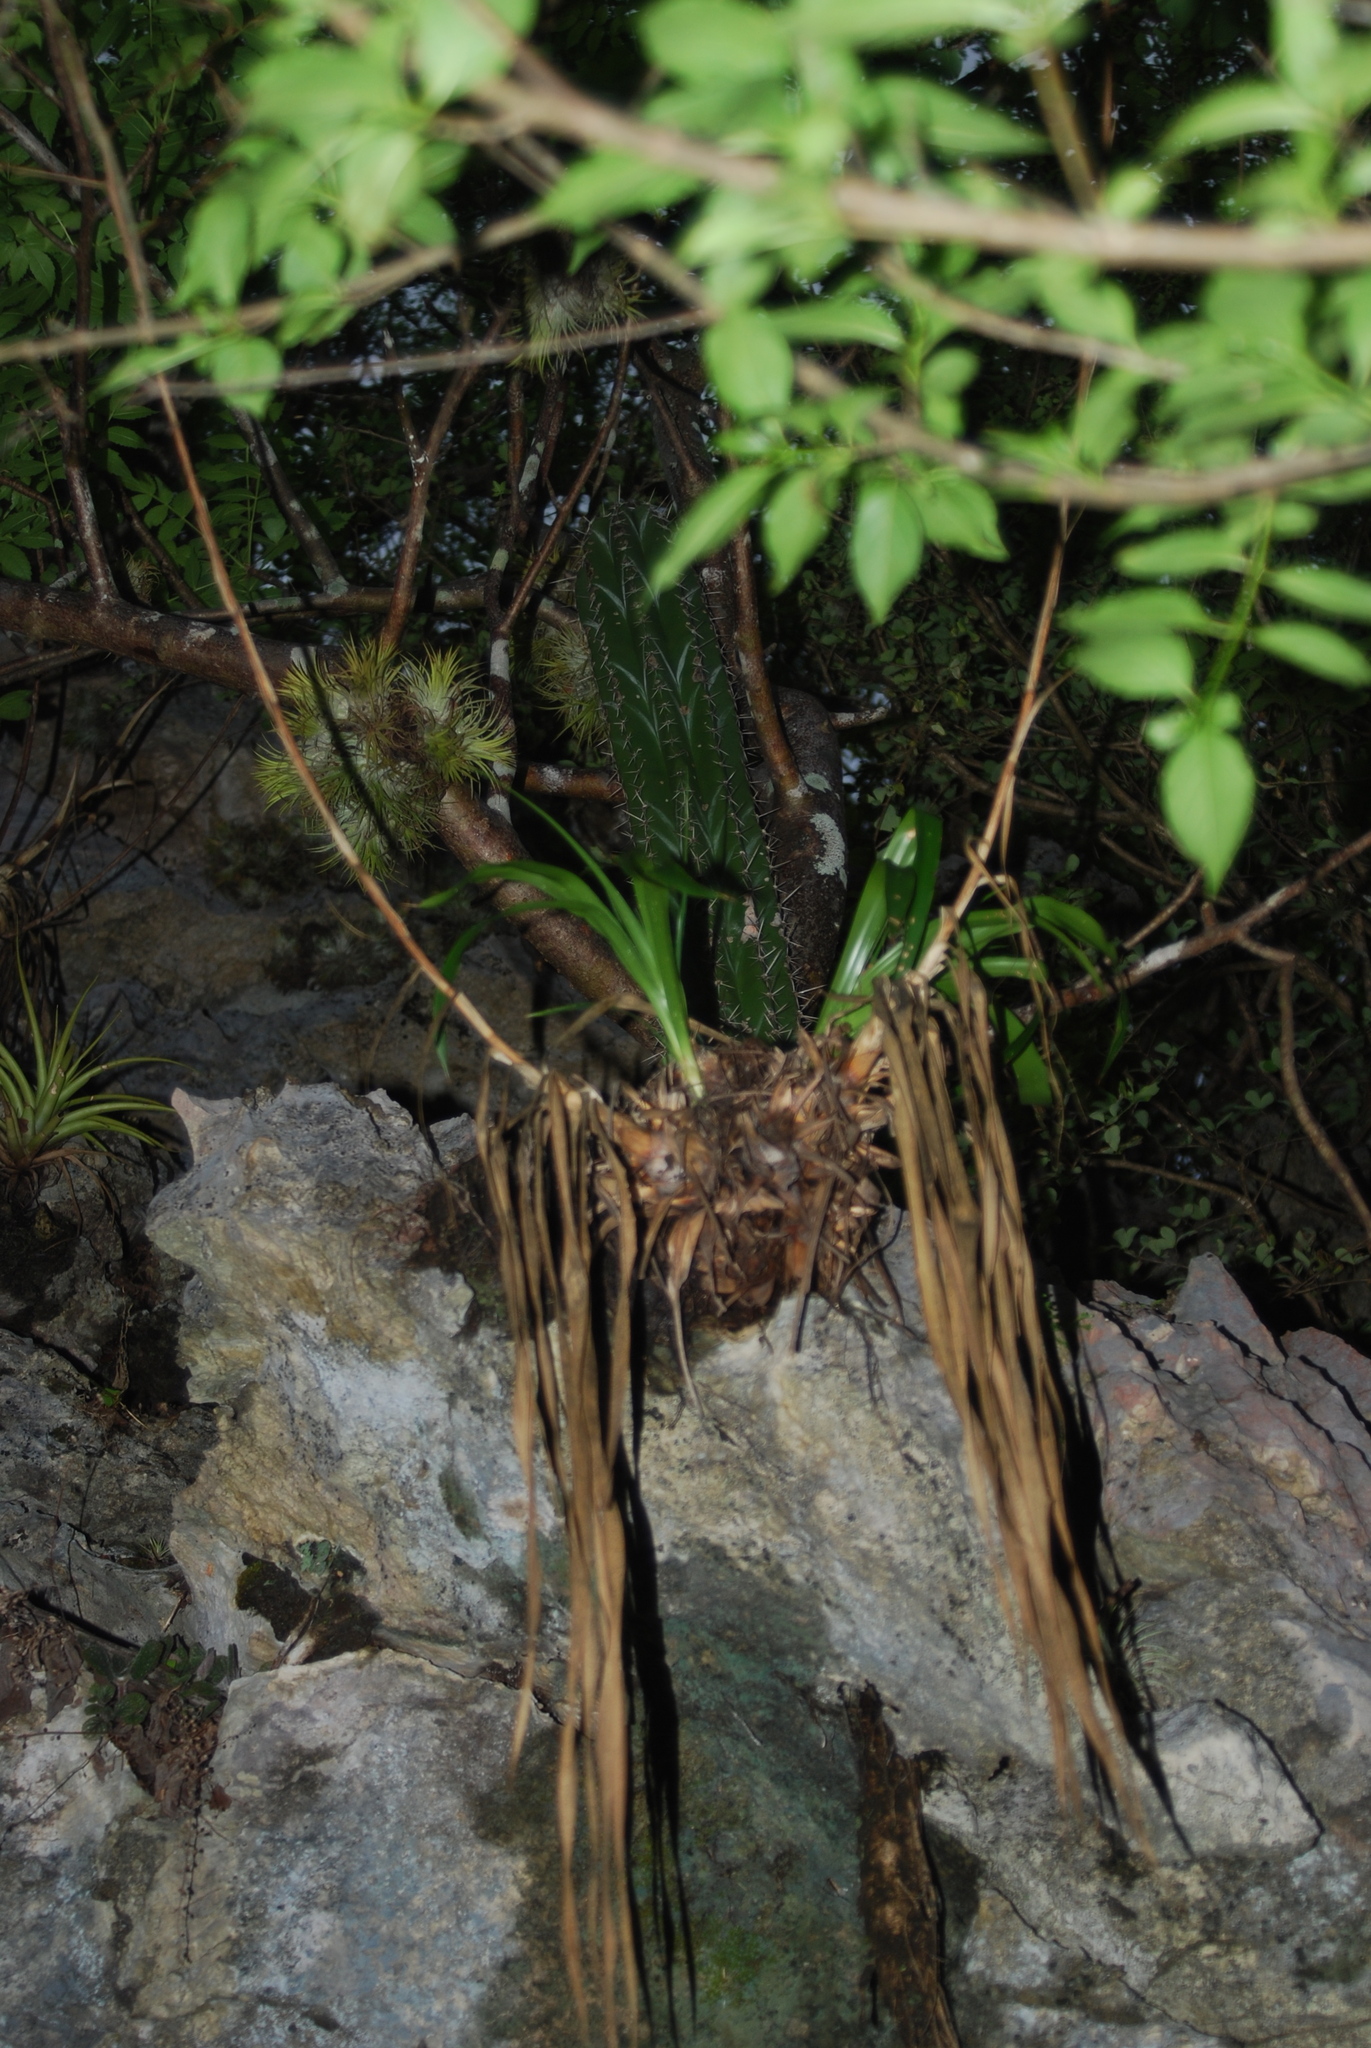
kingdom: Plantae
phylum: Tracheophyta
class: Liliopsida
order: Poales
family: Bromeliaceae
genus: Tillandsia
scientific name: Tillandsia ionantha
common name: Sky plant
